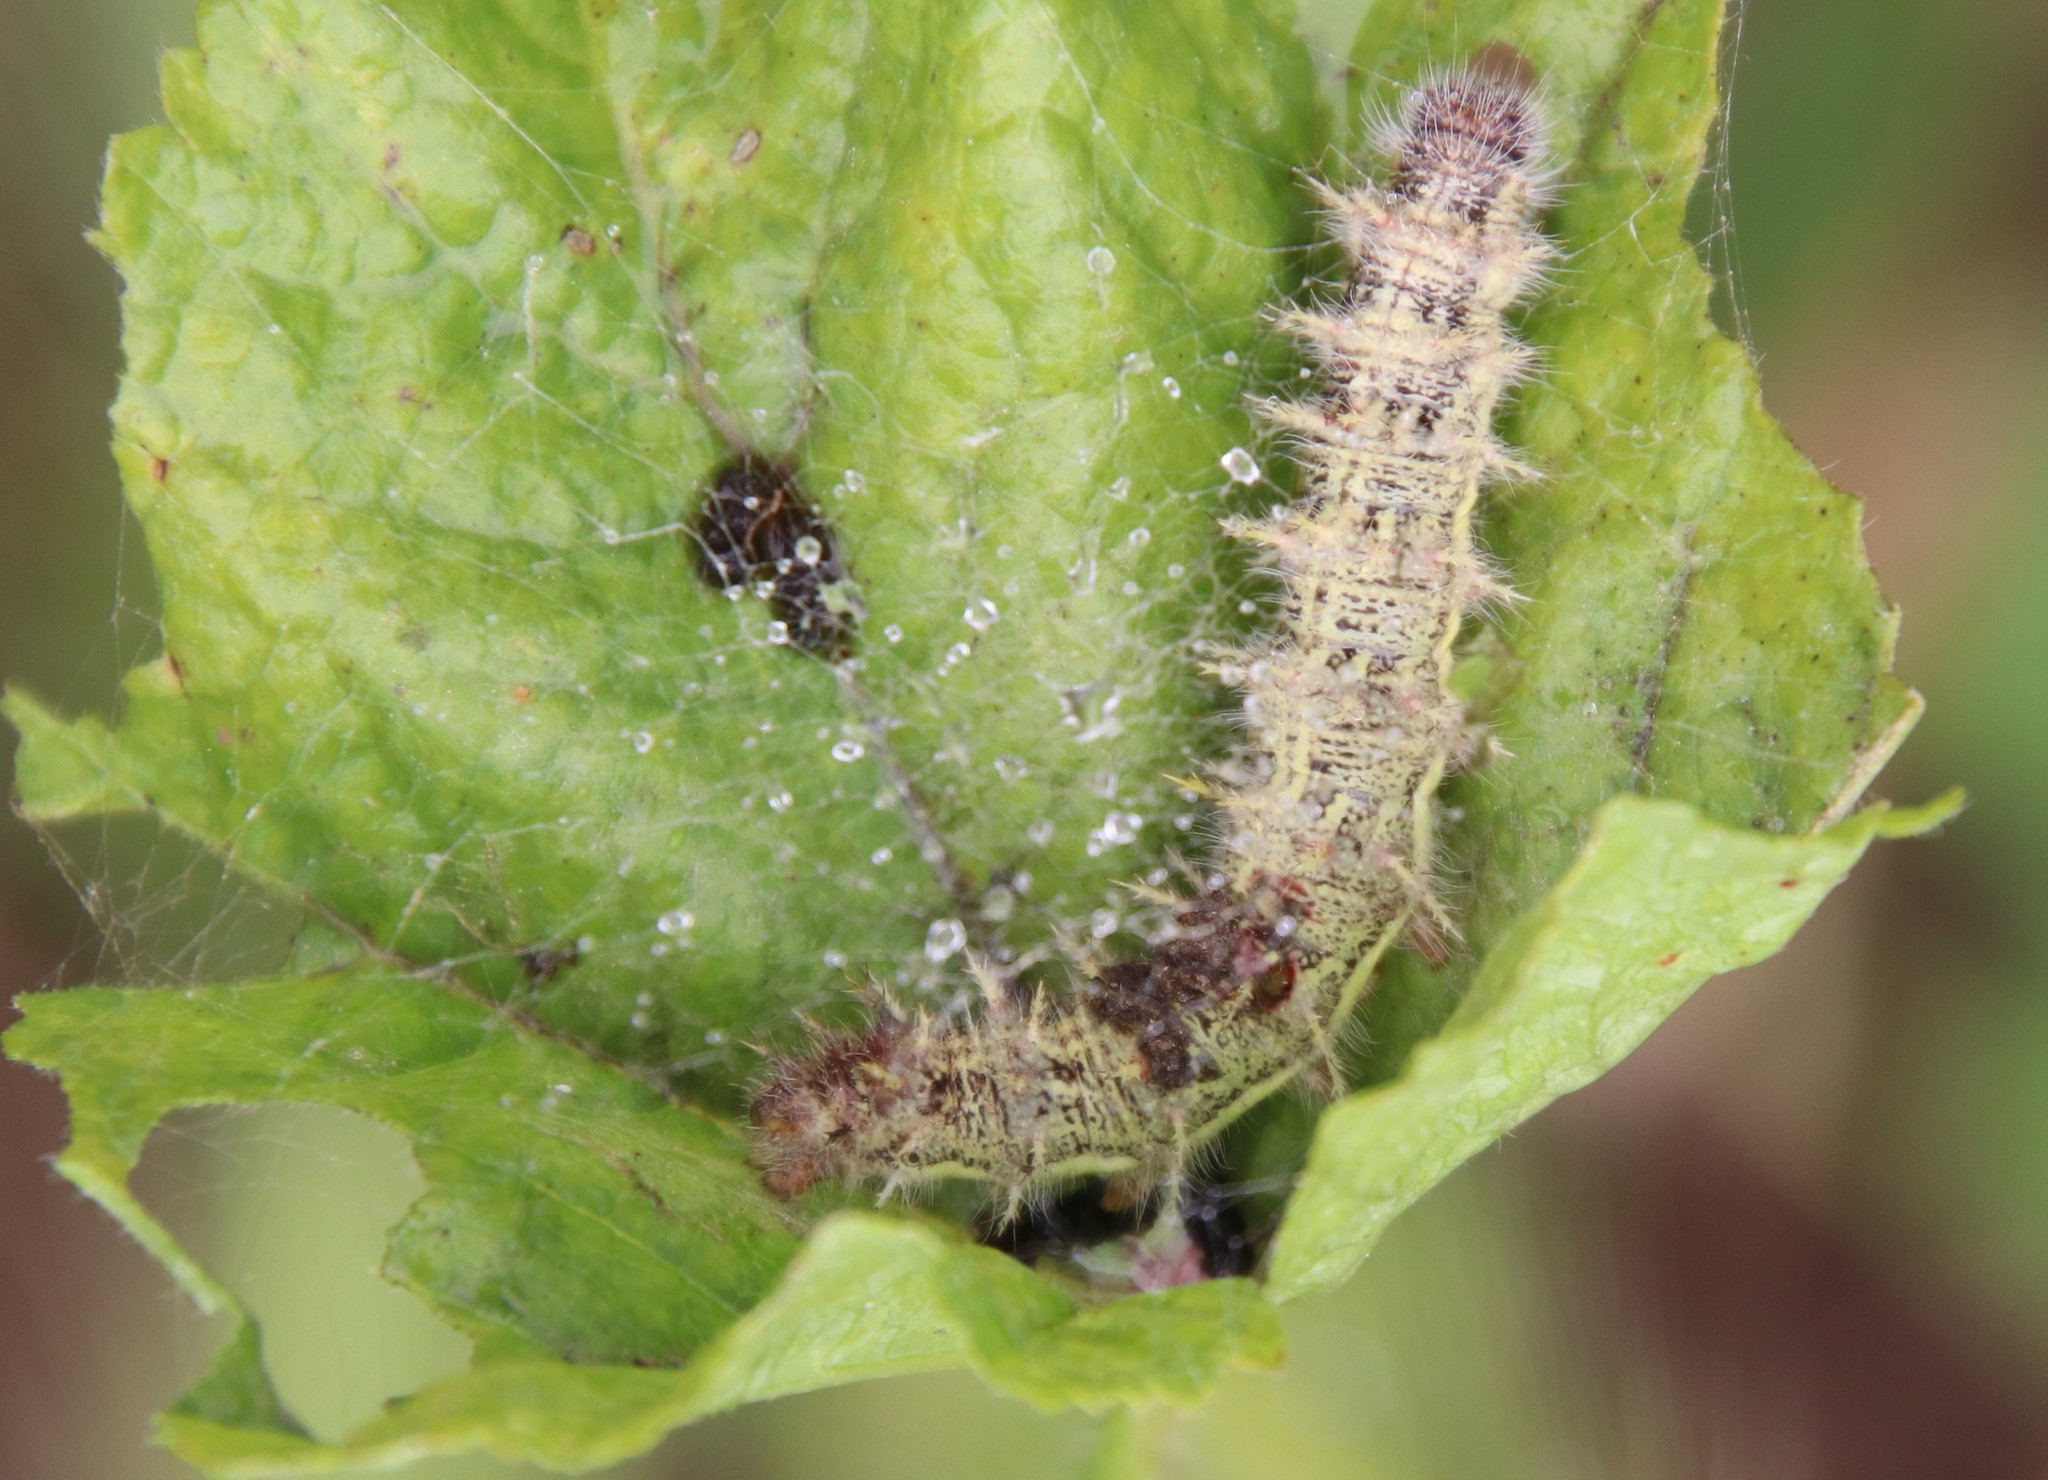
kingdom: Animalia
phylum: Arthropoda
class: Insecta
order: Lepidoptera
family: Nymphalidae
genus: Vanessa
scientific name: Vanessa cardui
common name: Painted lady
